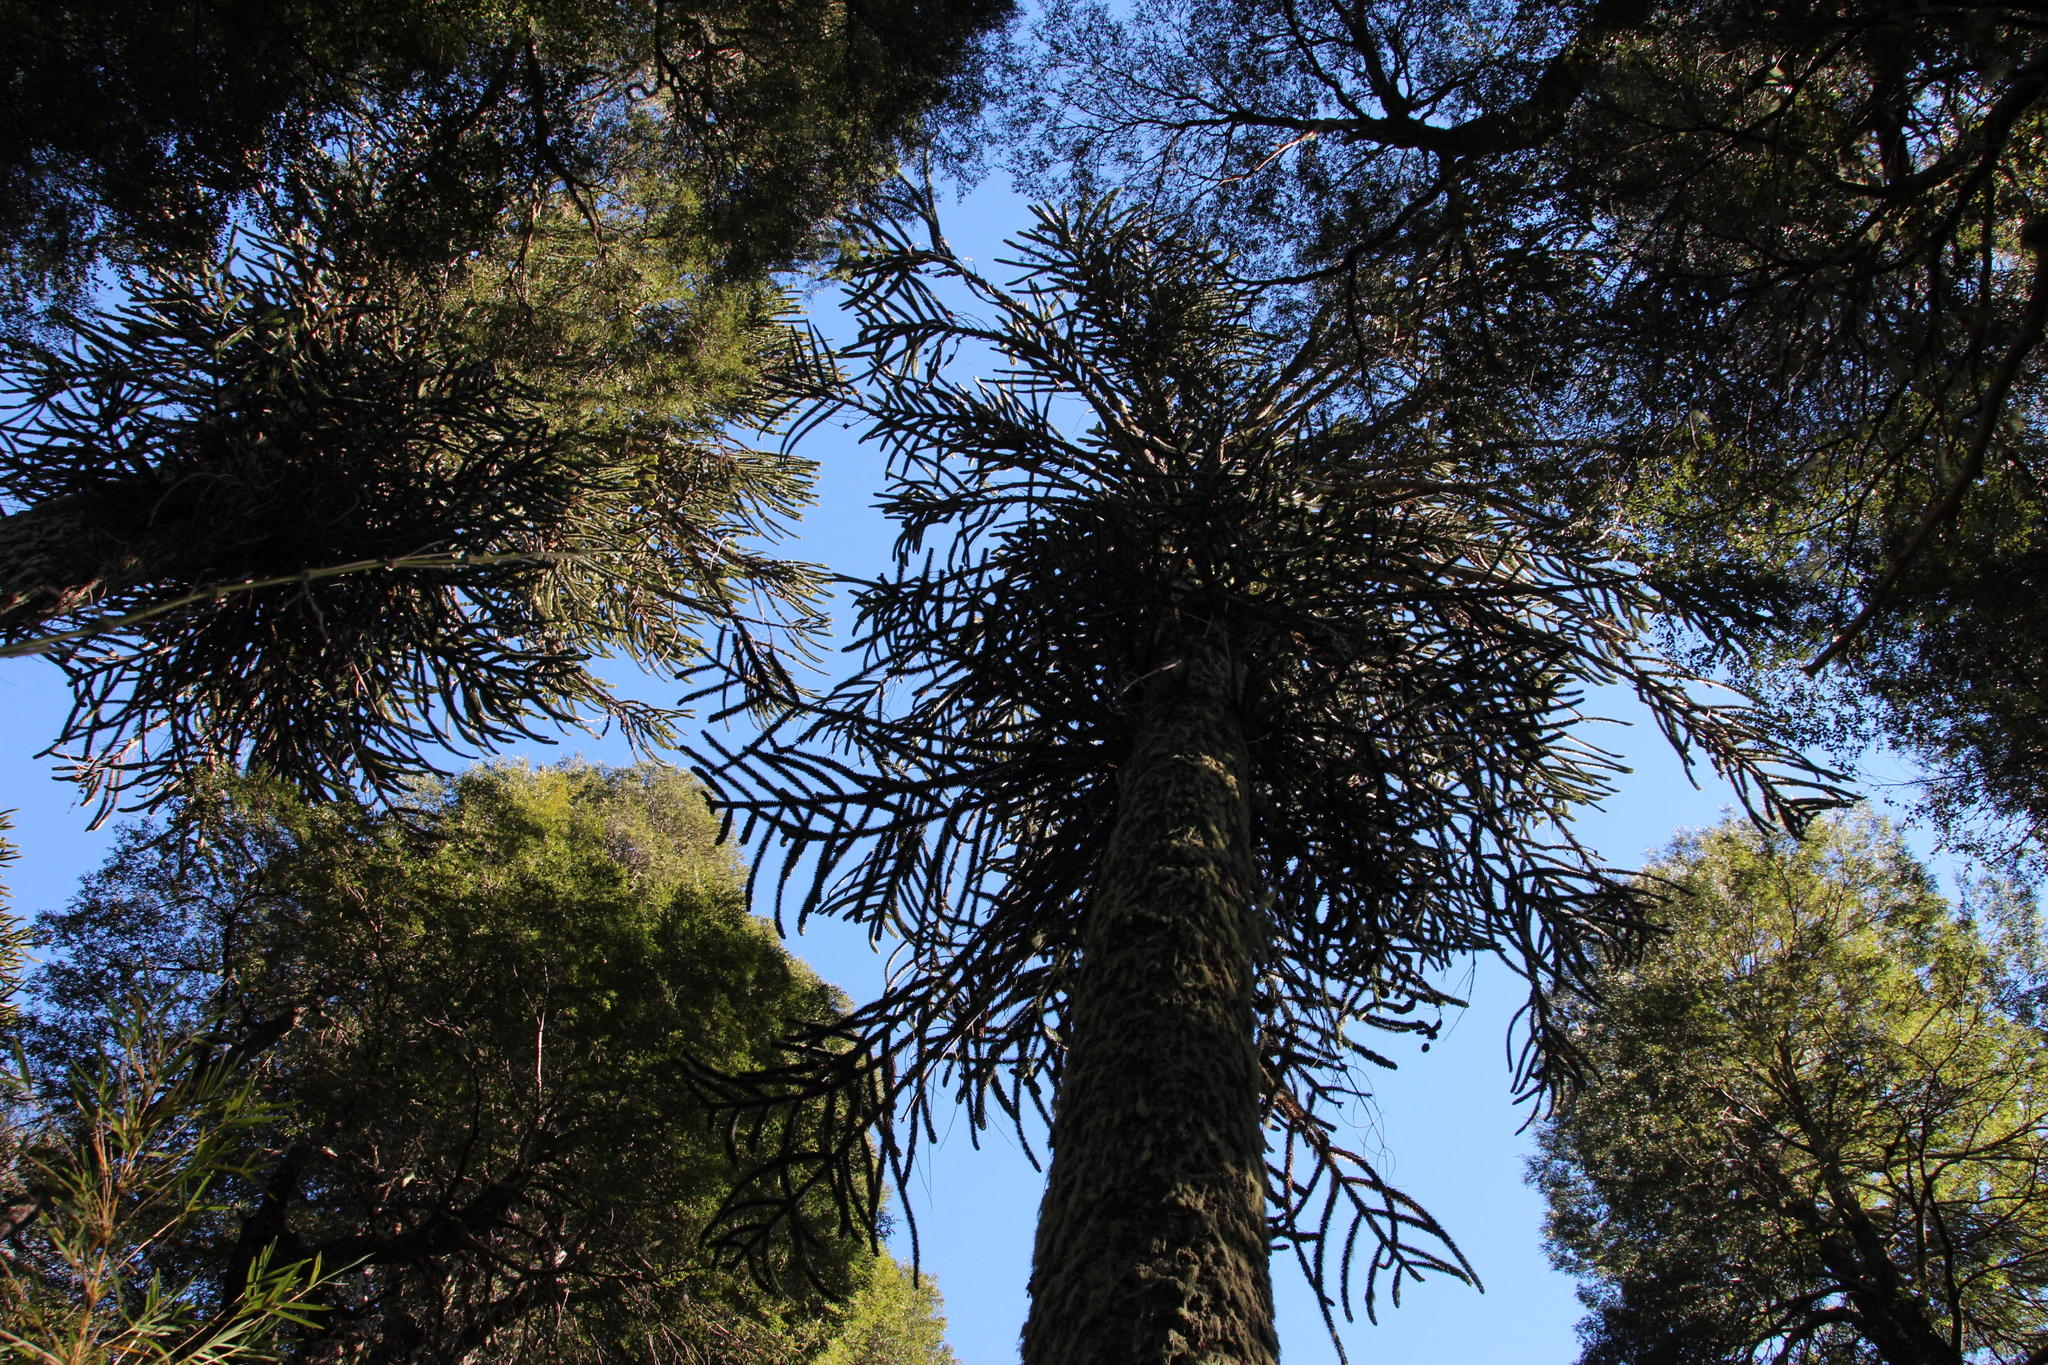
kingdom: Plantae
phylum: Tracheophyta
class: Pinopsida
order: Pinales
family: Araucariaceae
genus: Araucaria
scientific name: Araucaria araucana
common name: Monkey-puzzle
